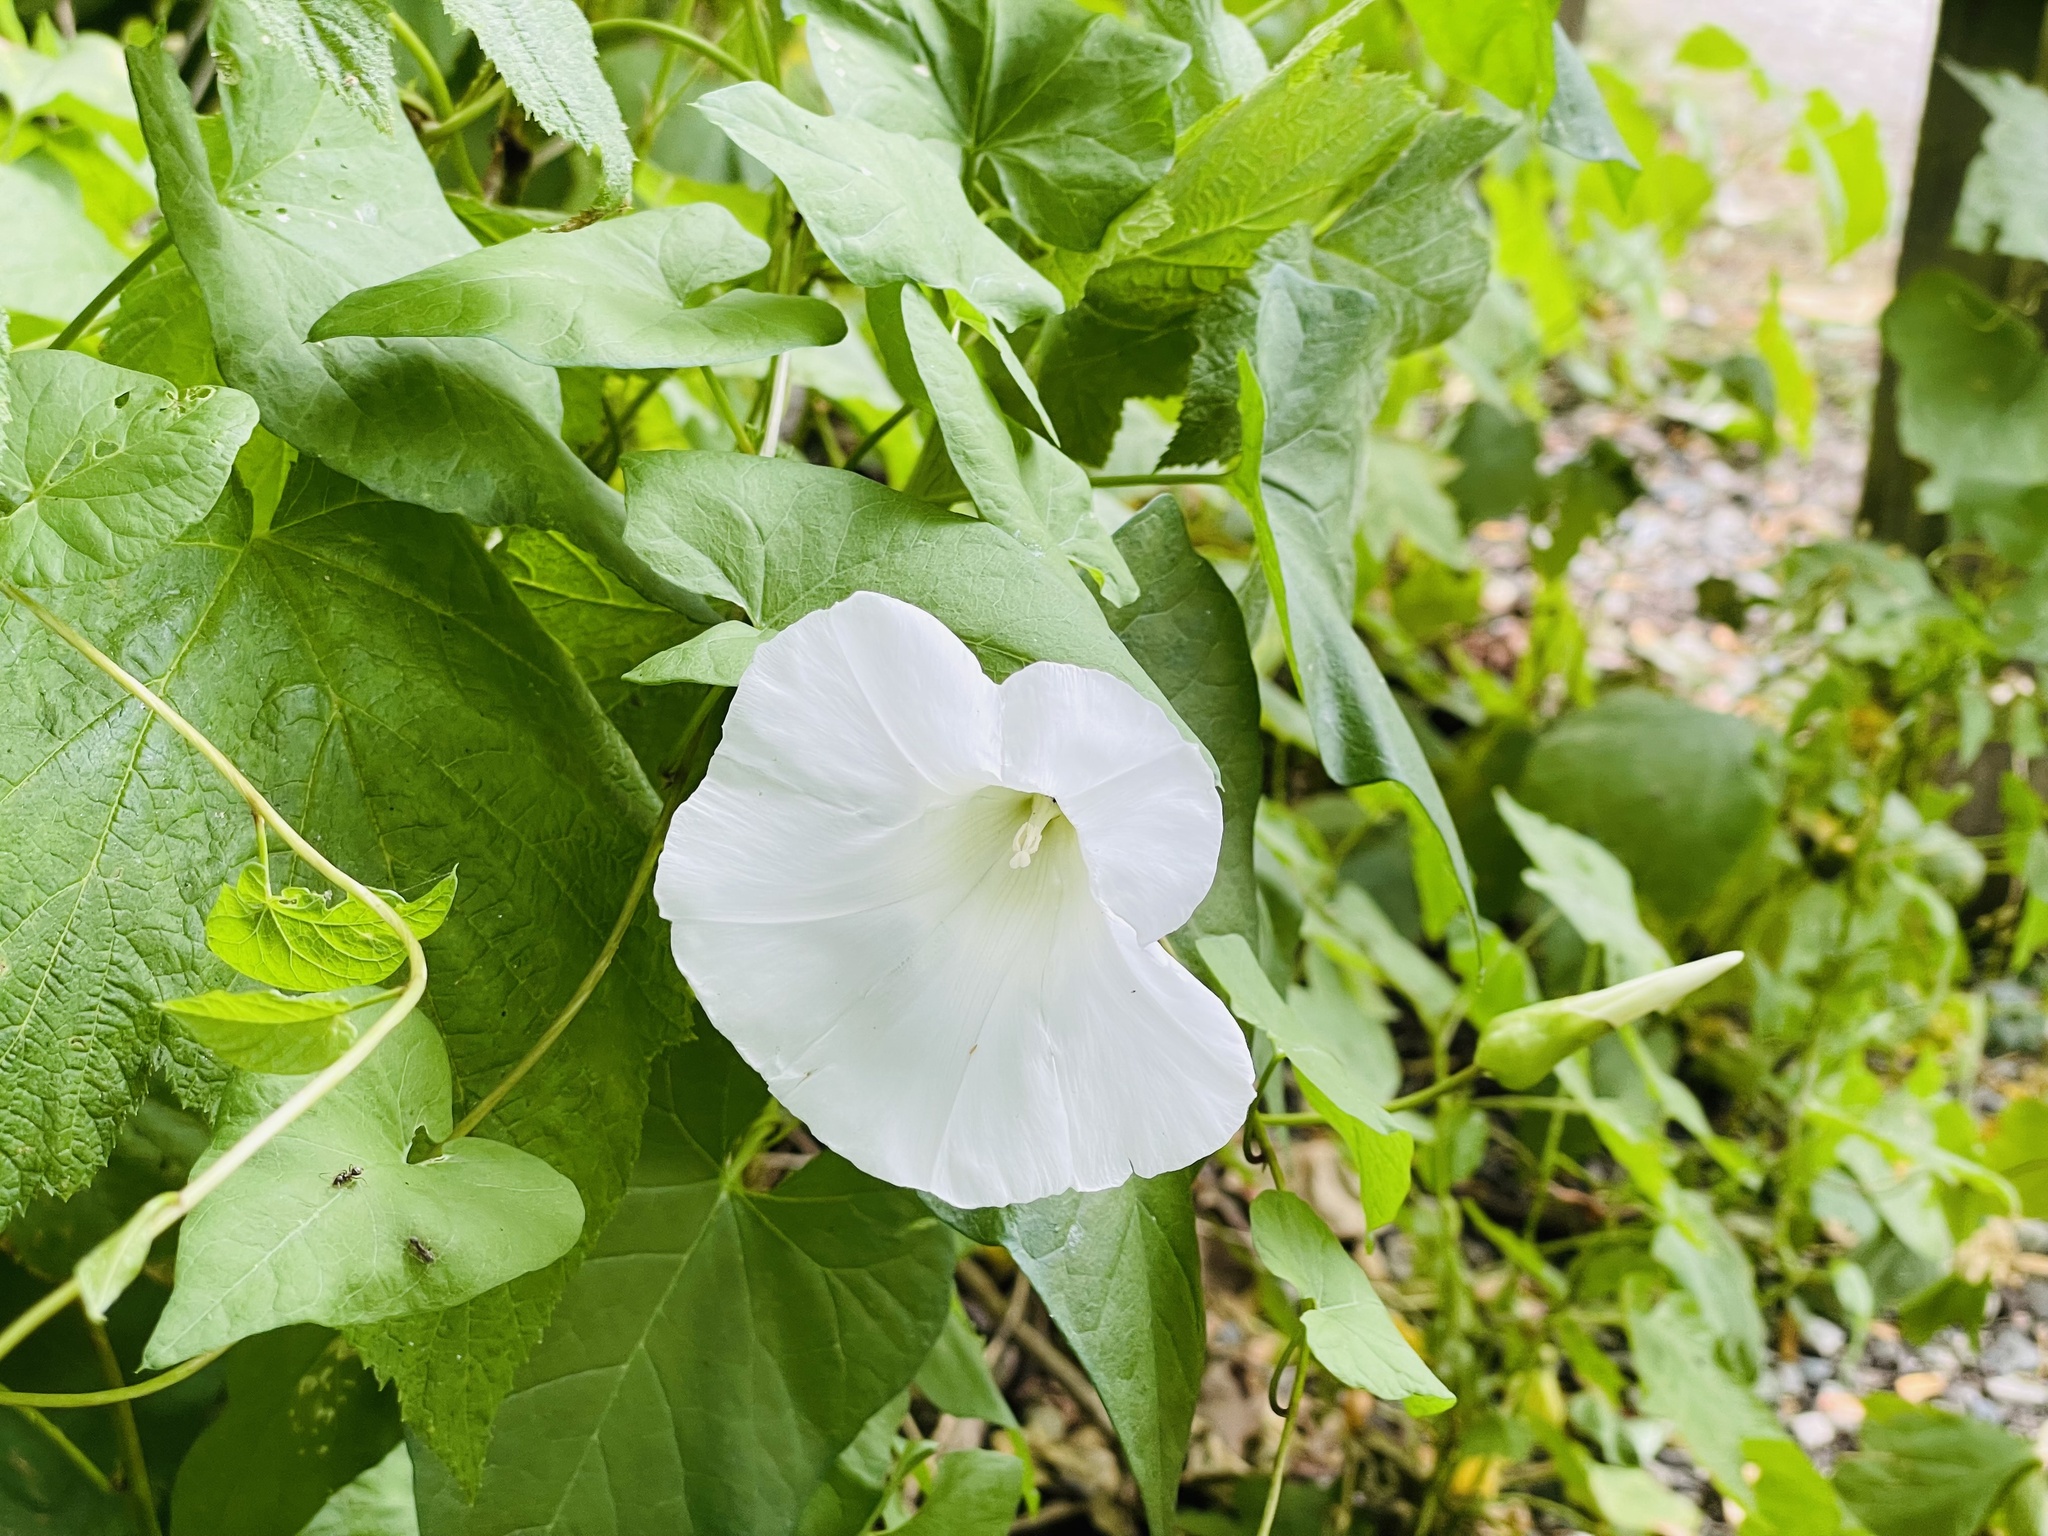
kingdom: Plantae
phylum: Tracheophyta
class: Magnoliopsida
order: Solanales
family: Convolvulaceae
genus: Calystegia
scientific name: Calystegia sepium
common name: Hedge bindweed
